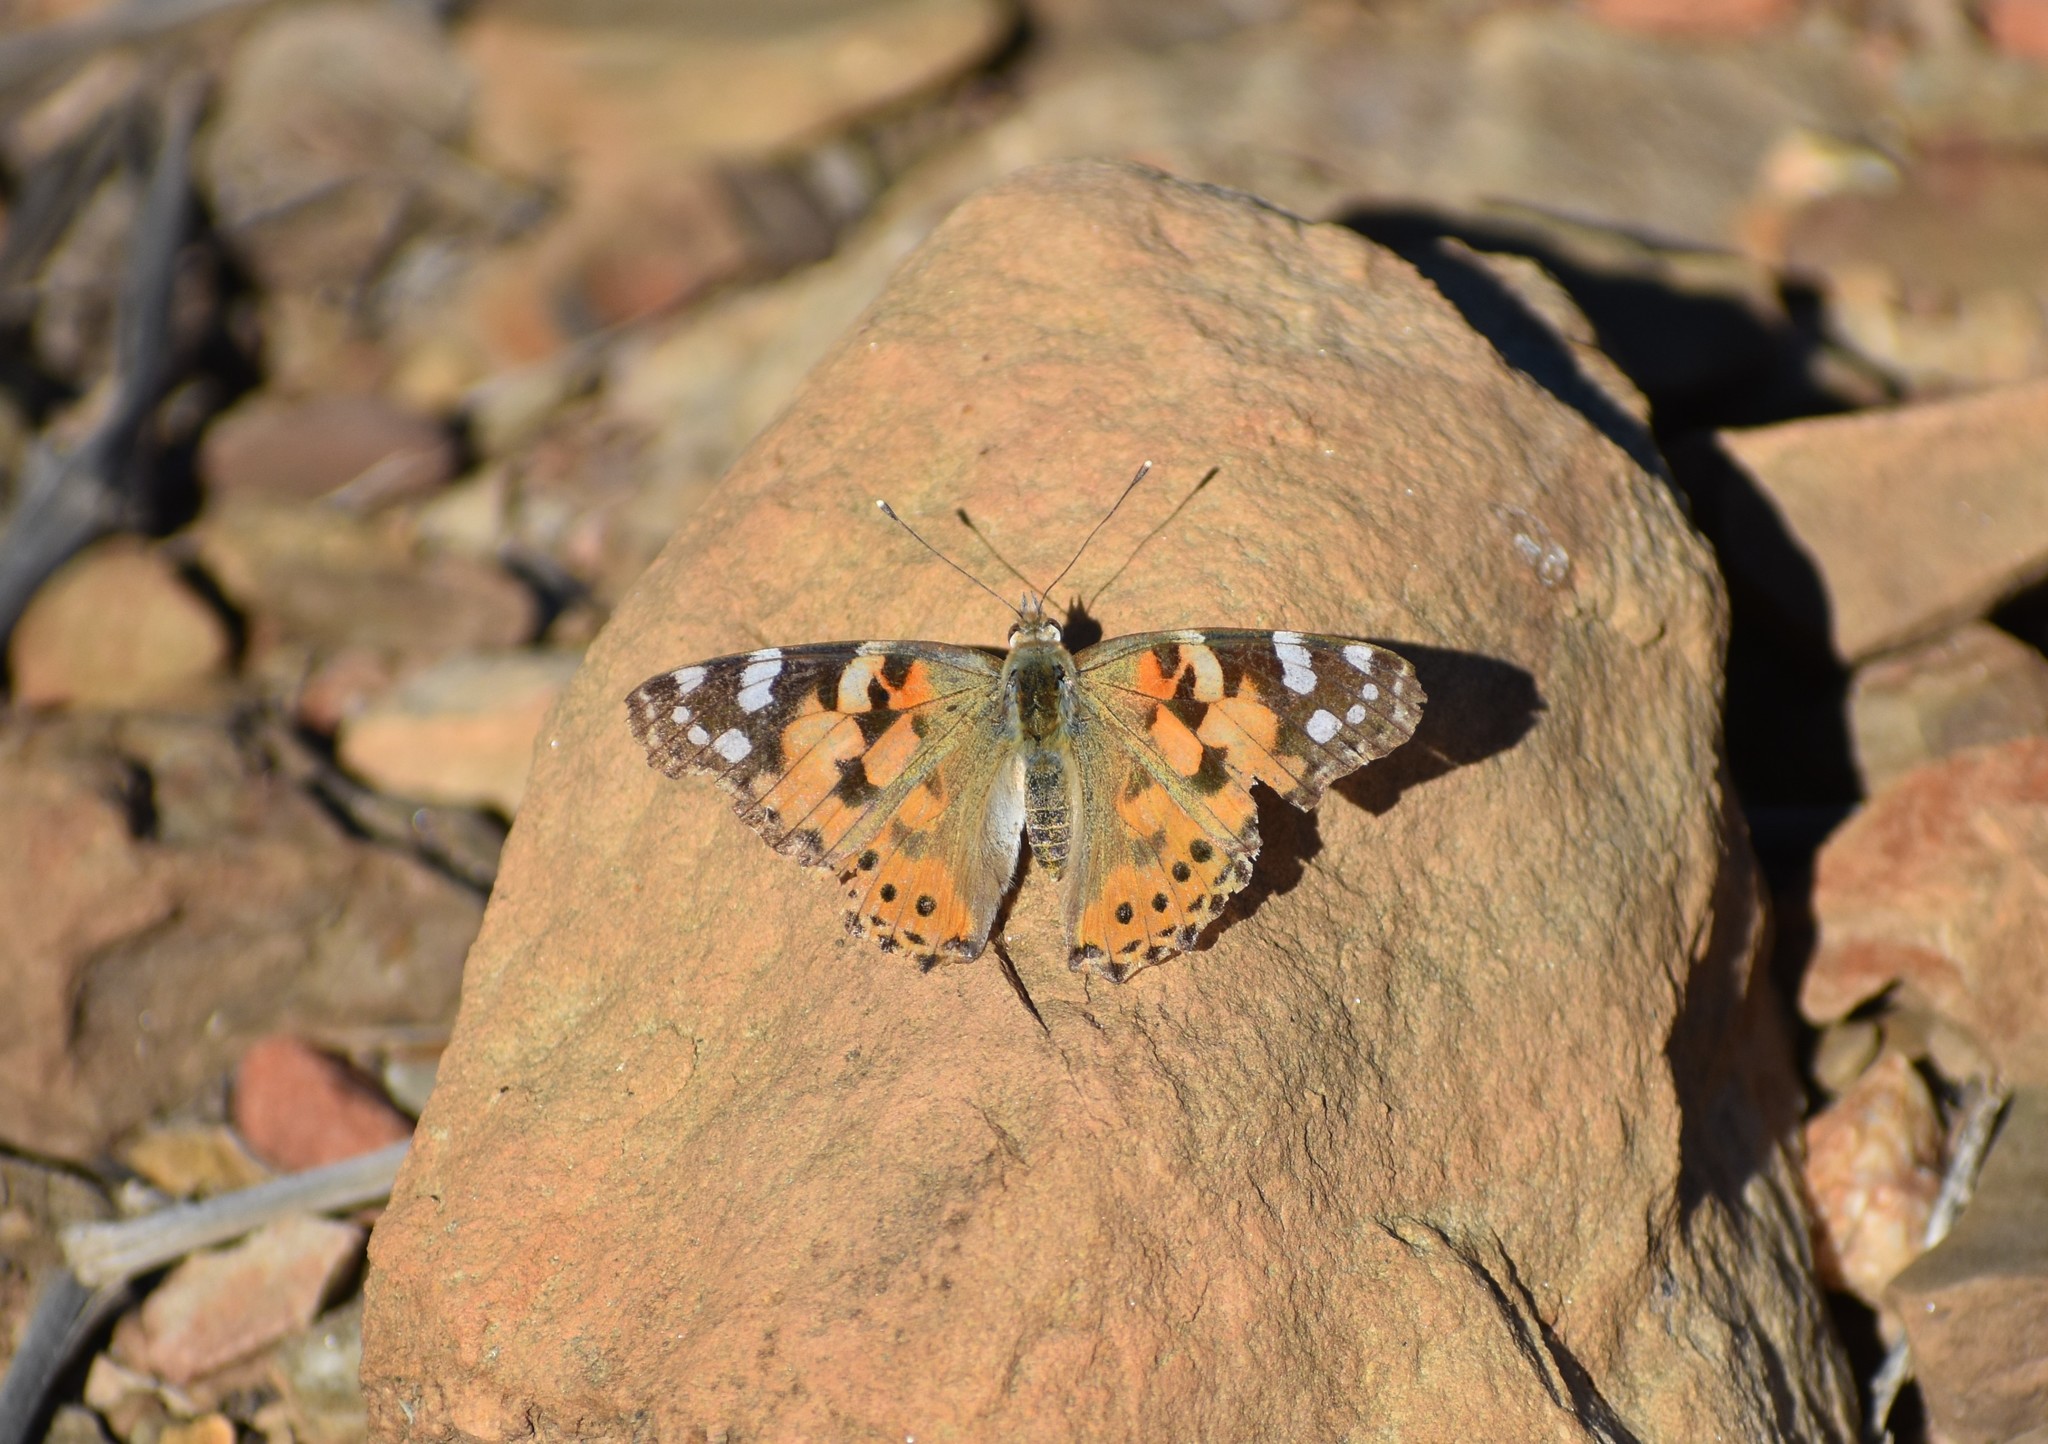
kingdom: Animalia
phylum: Arthropoda
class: Insecta
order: Lepidoptera
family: Nymphalidae
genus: Vanessa
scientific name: Vanessa cardui
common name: Painted lady
